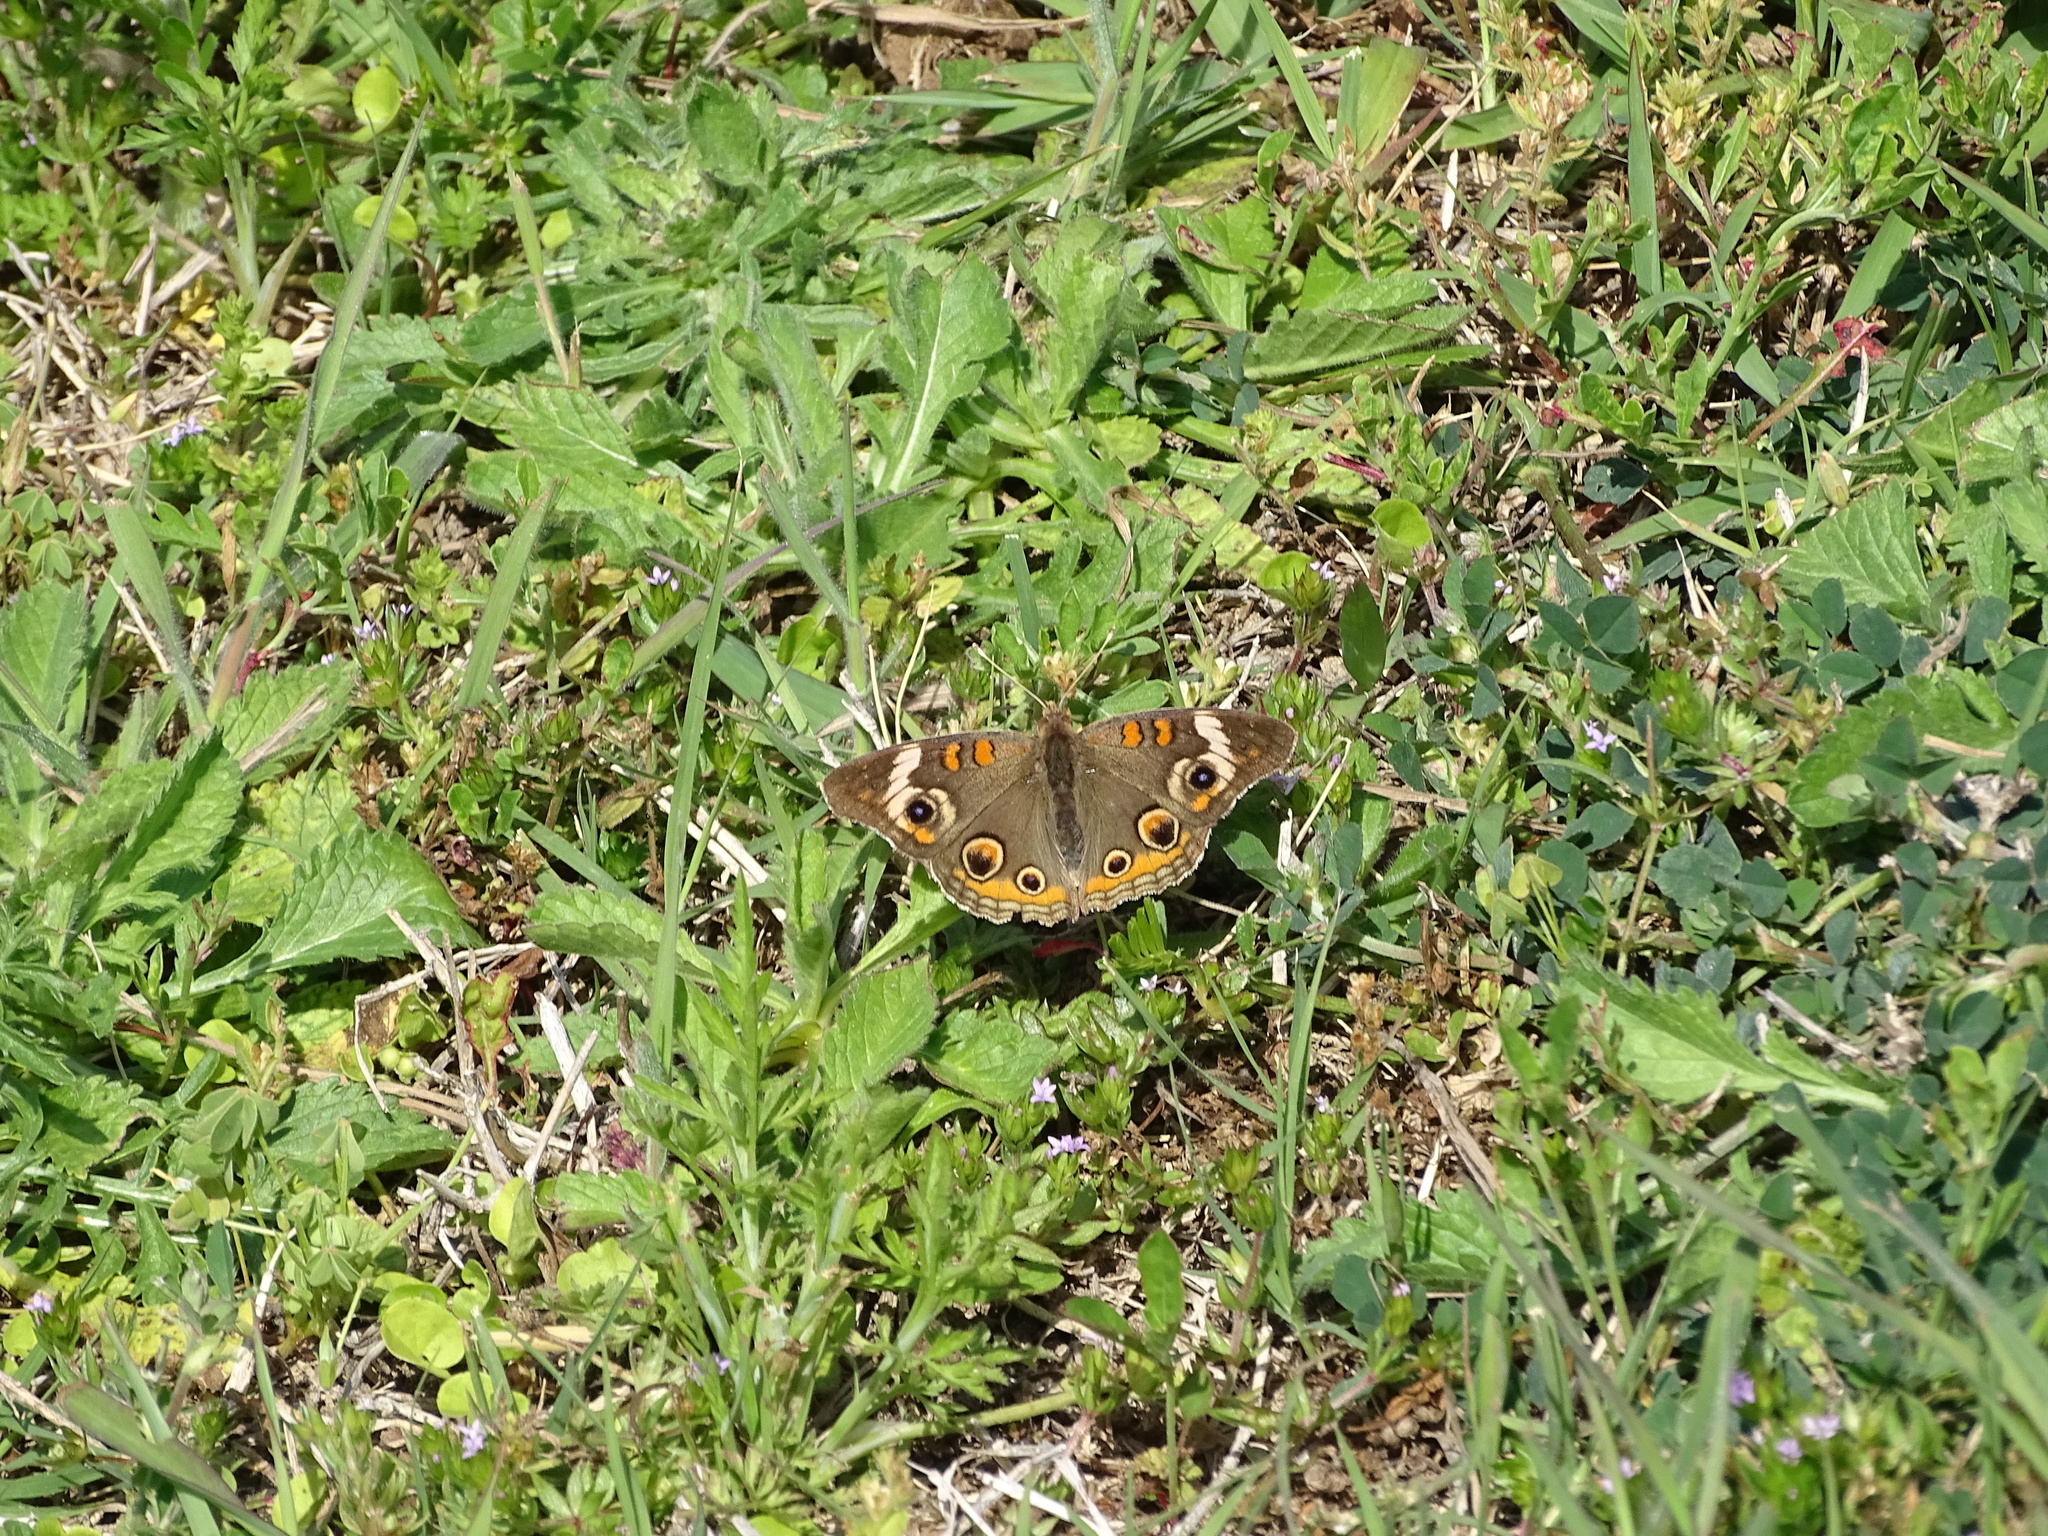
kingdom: Animalia
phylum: Arthropoda
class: Insecta
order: Lepidoptera
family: Nymphalidae
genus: Junonia
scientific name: Junonia coenia
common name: Common buckeye
